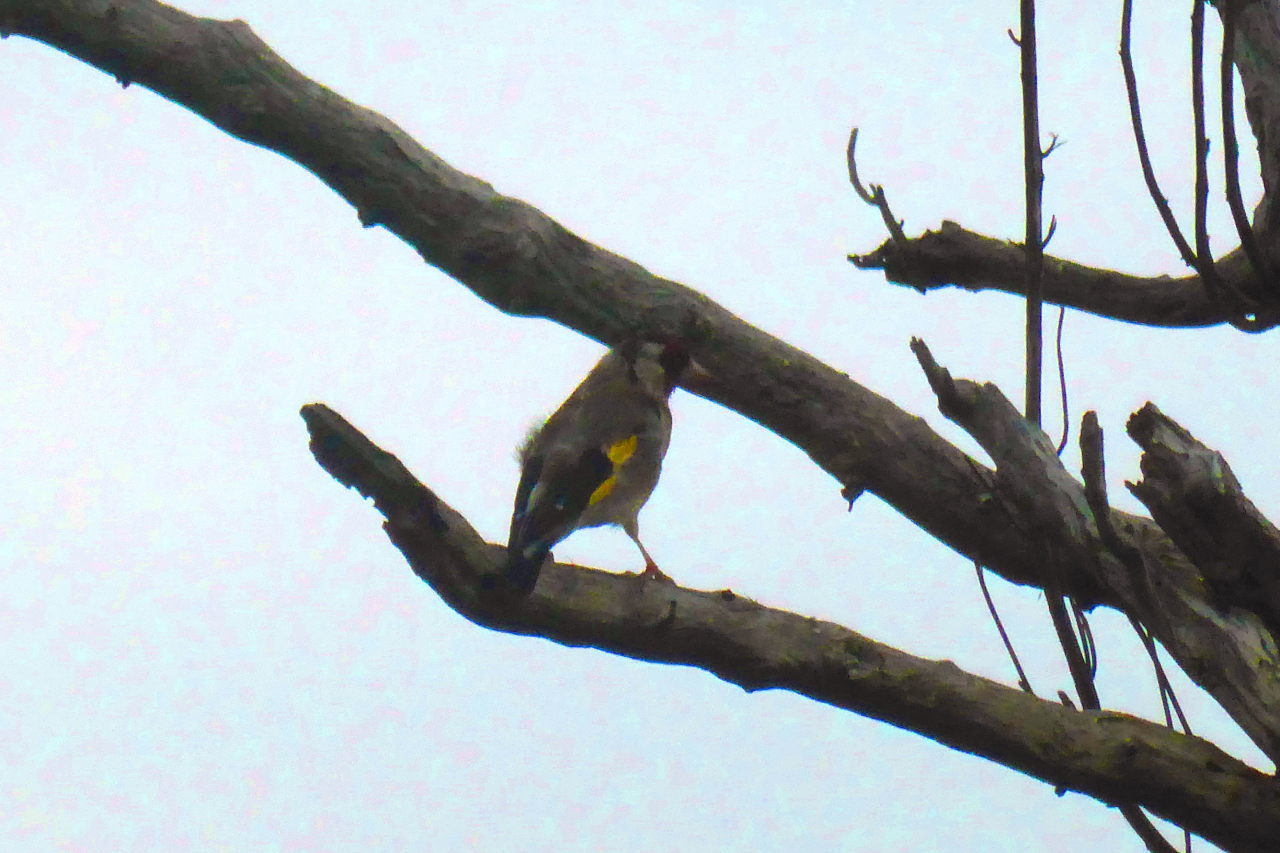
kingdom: Animalia
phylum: Chordata
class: Aves
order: Passeriformes
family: Fringillidae
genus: Carduelis
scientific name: Carduelis carduelis
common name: European goldfinch
